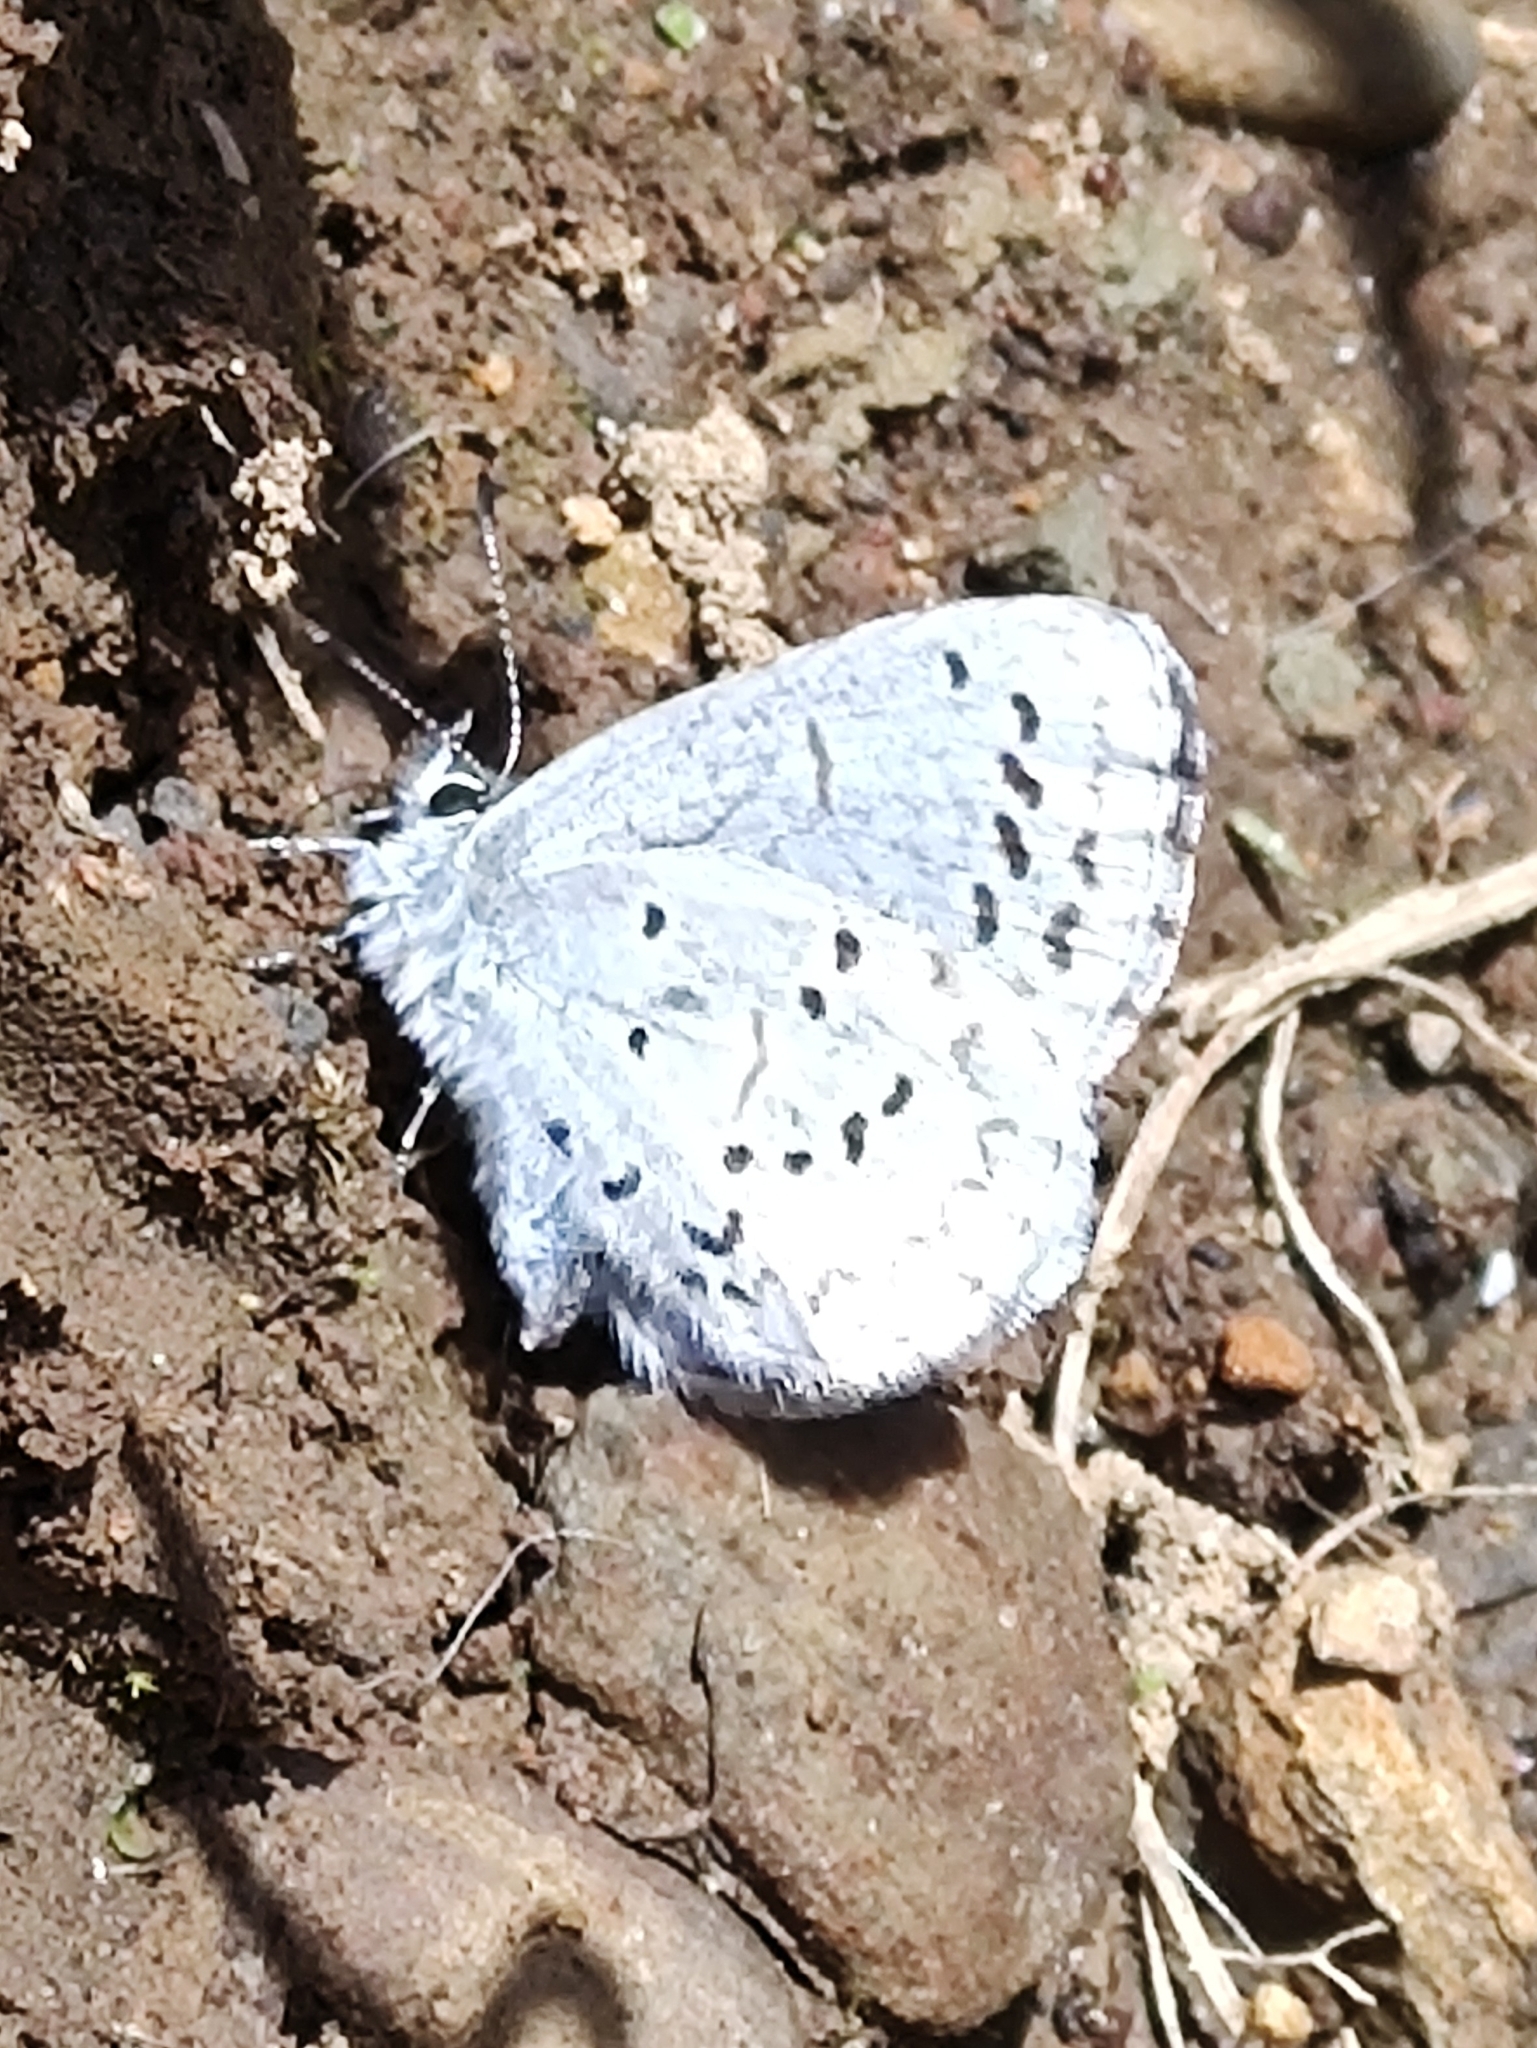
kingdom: Animalia
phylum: Arthropoda
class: Insecta
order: Lepidoptera
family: Lycaenidae
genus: Celastrina
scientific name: Celastrina ladon
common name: Spring azure
